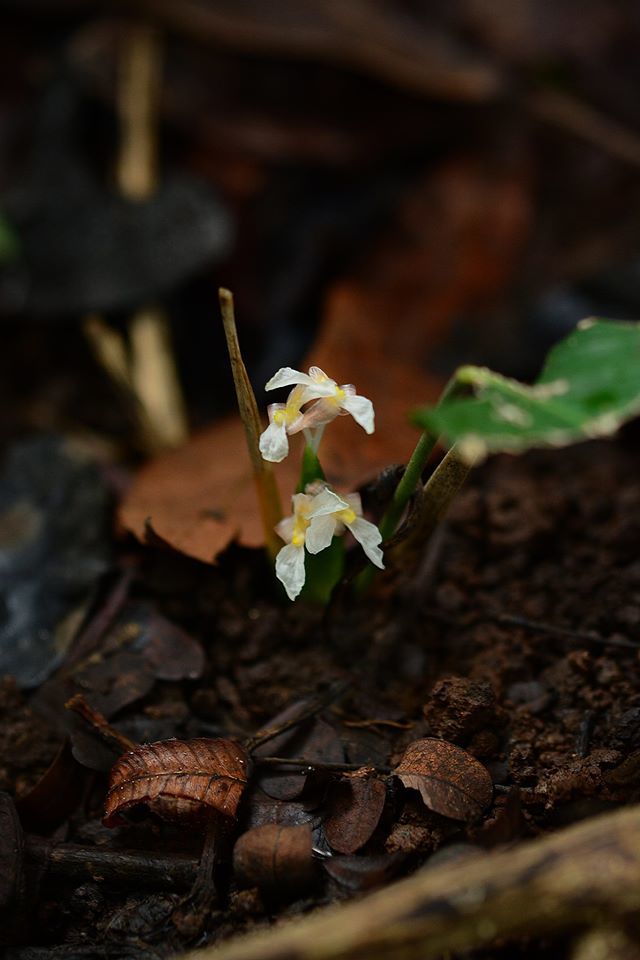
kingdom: Plantae
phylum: Tracheophyta
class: Liliopsida
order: Zingiberales
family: Marantaceae
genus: Stachyphrynium
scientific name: Stachyphrynium spicatum
